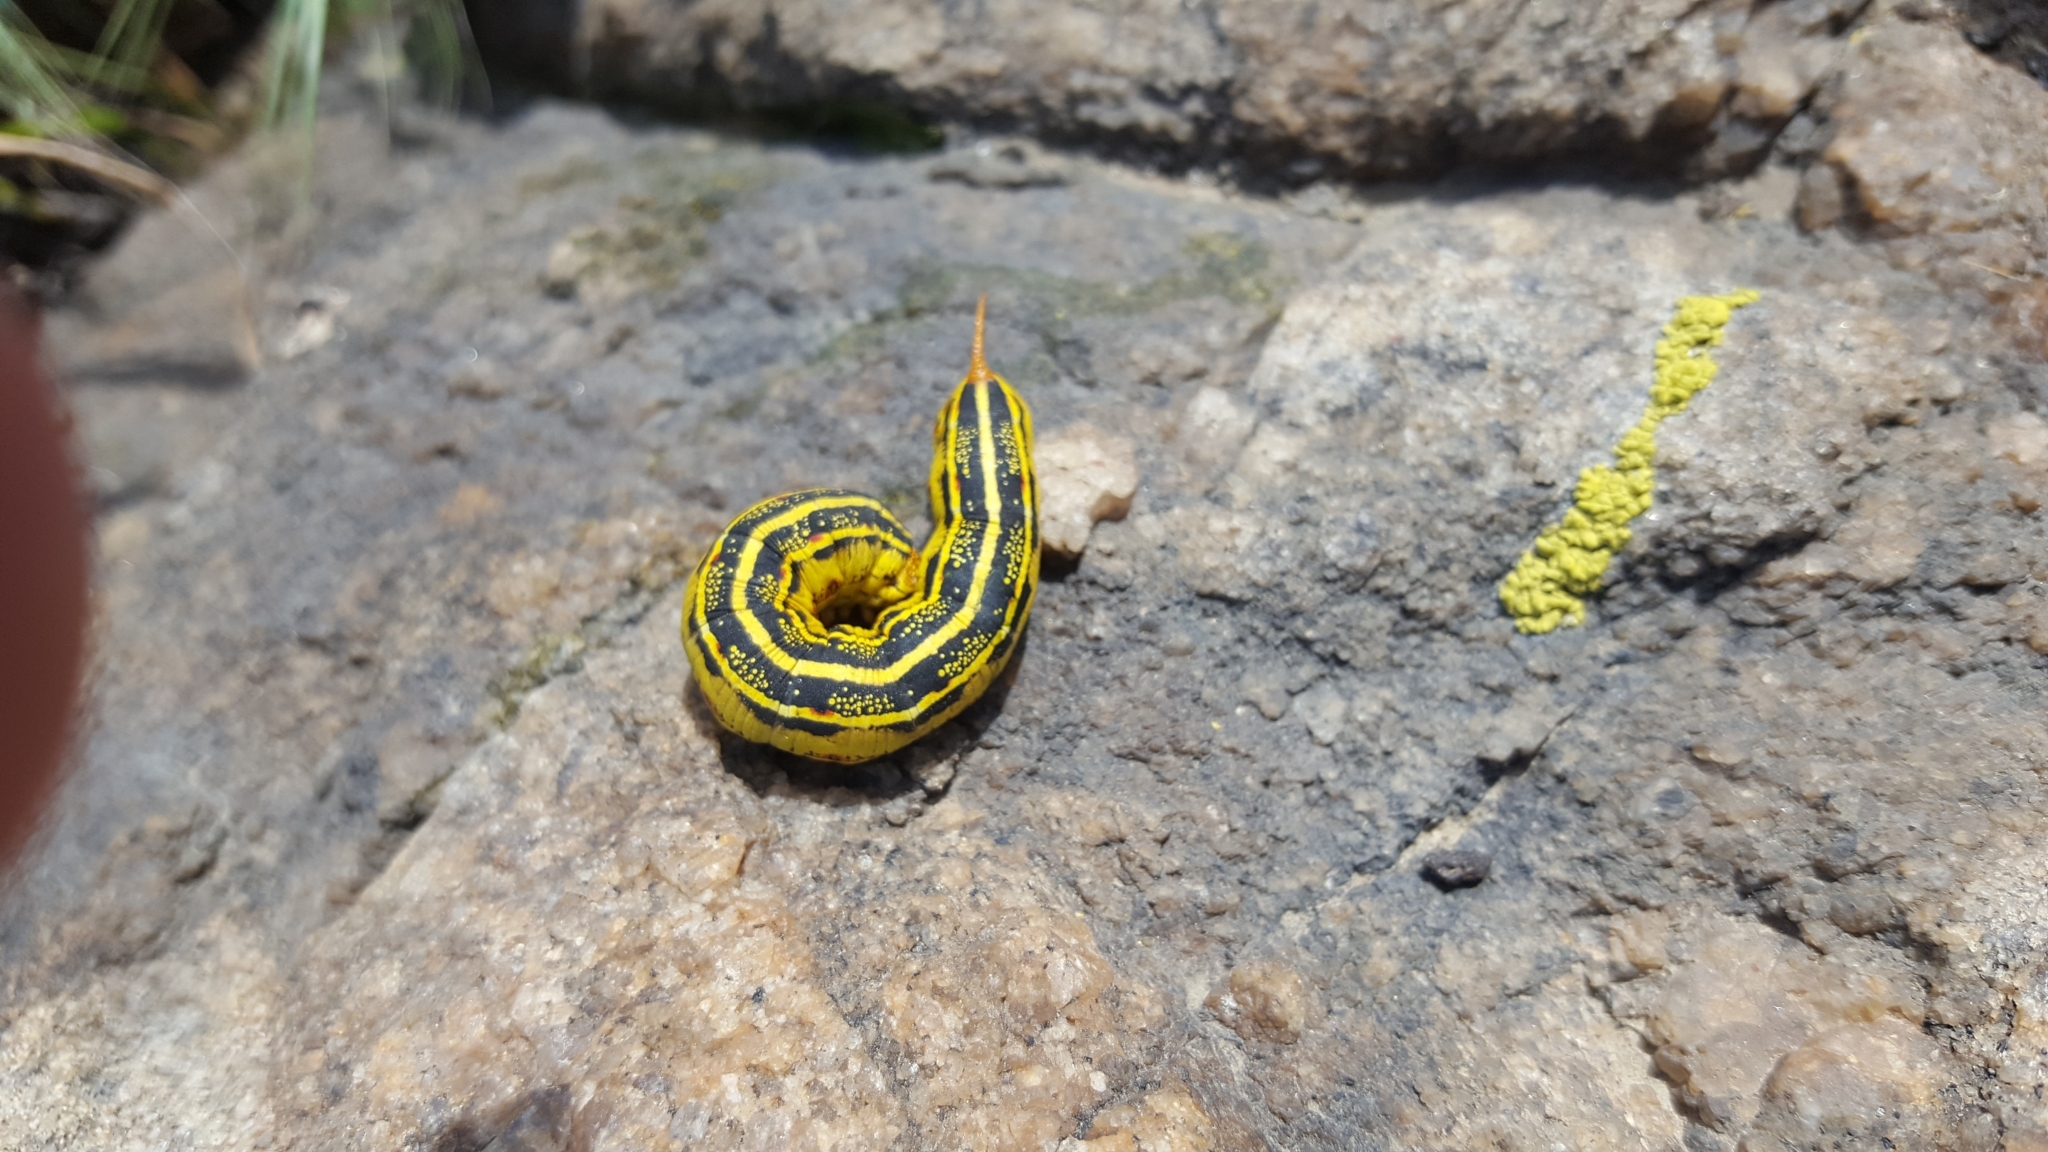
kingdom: Animalia
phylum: Arthropoda
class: Insecta
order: Lepidoptera
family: Sphingidae
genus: Hyles
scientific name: Hyles lineata
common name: White-lined sphinx
